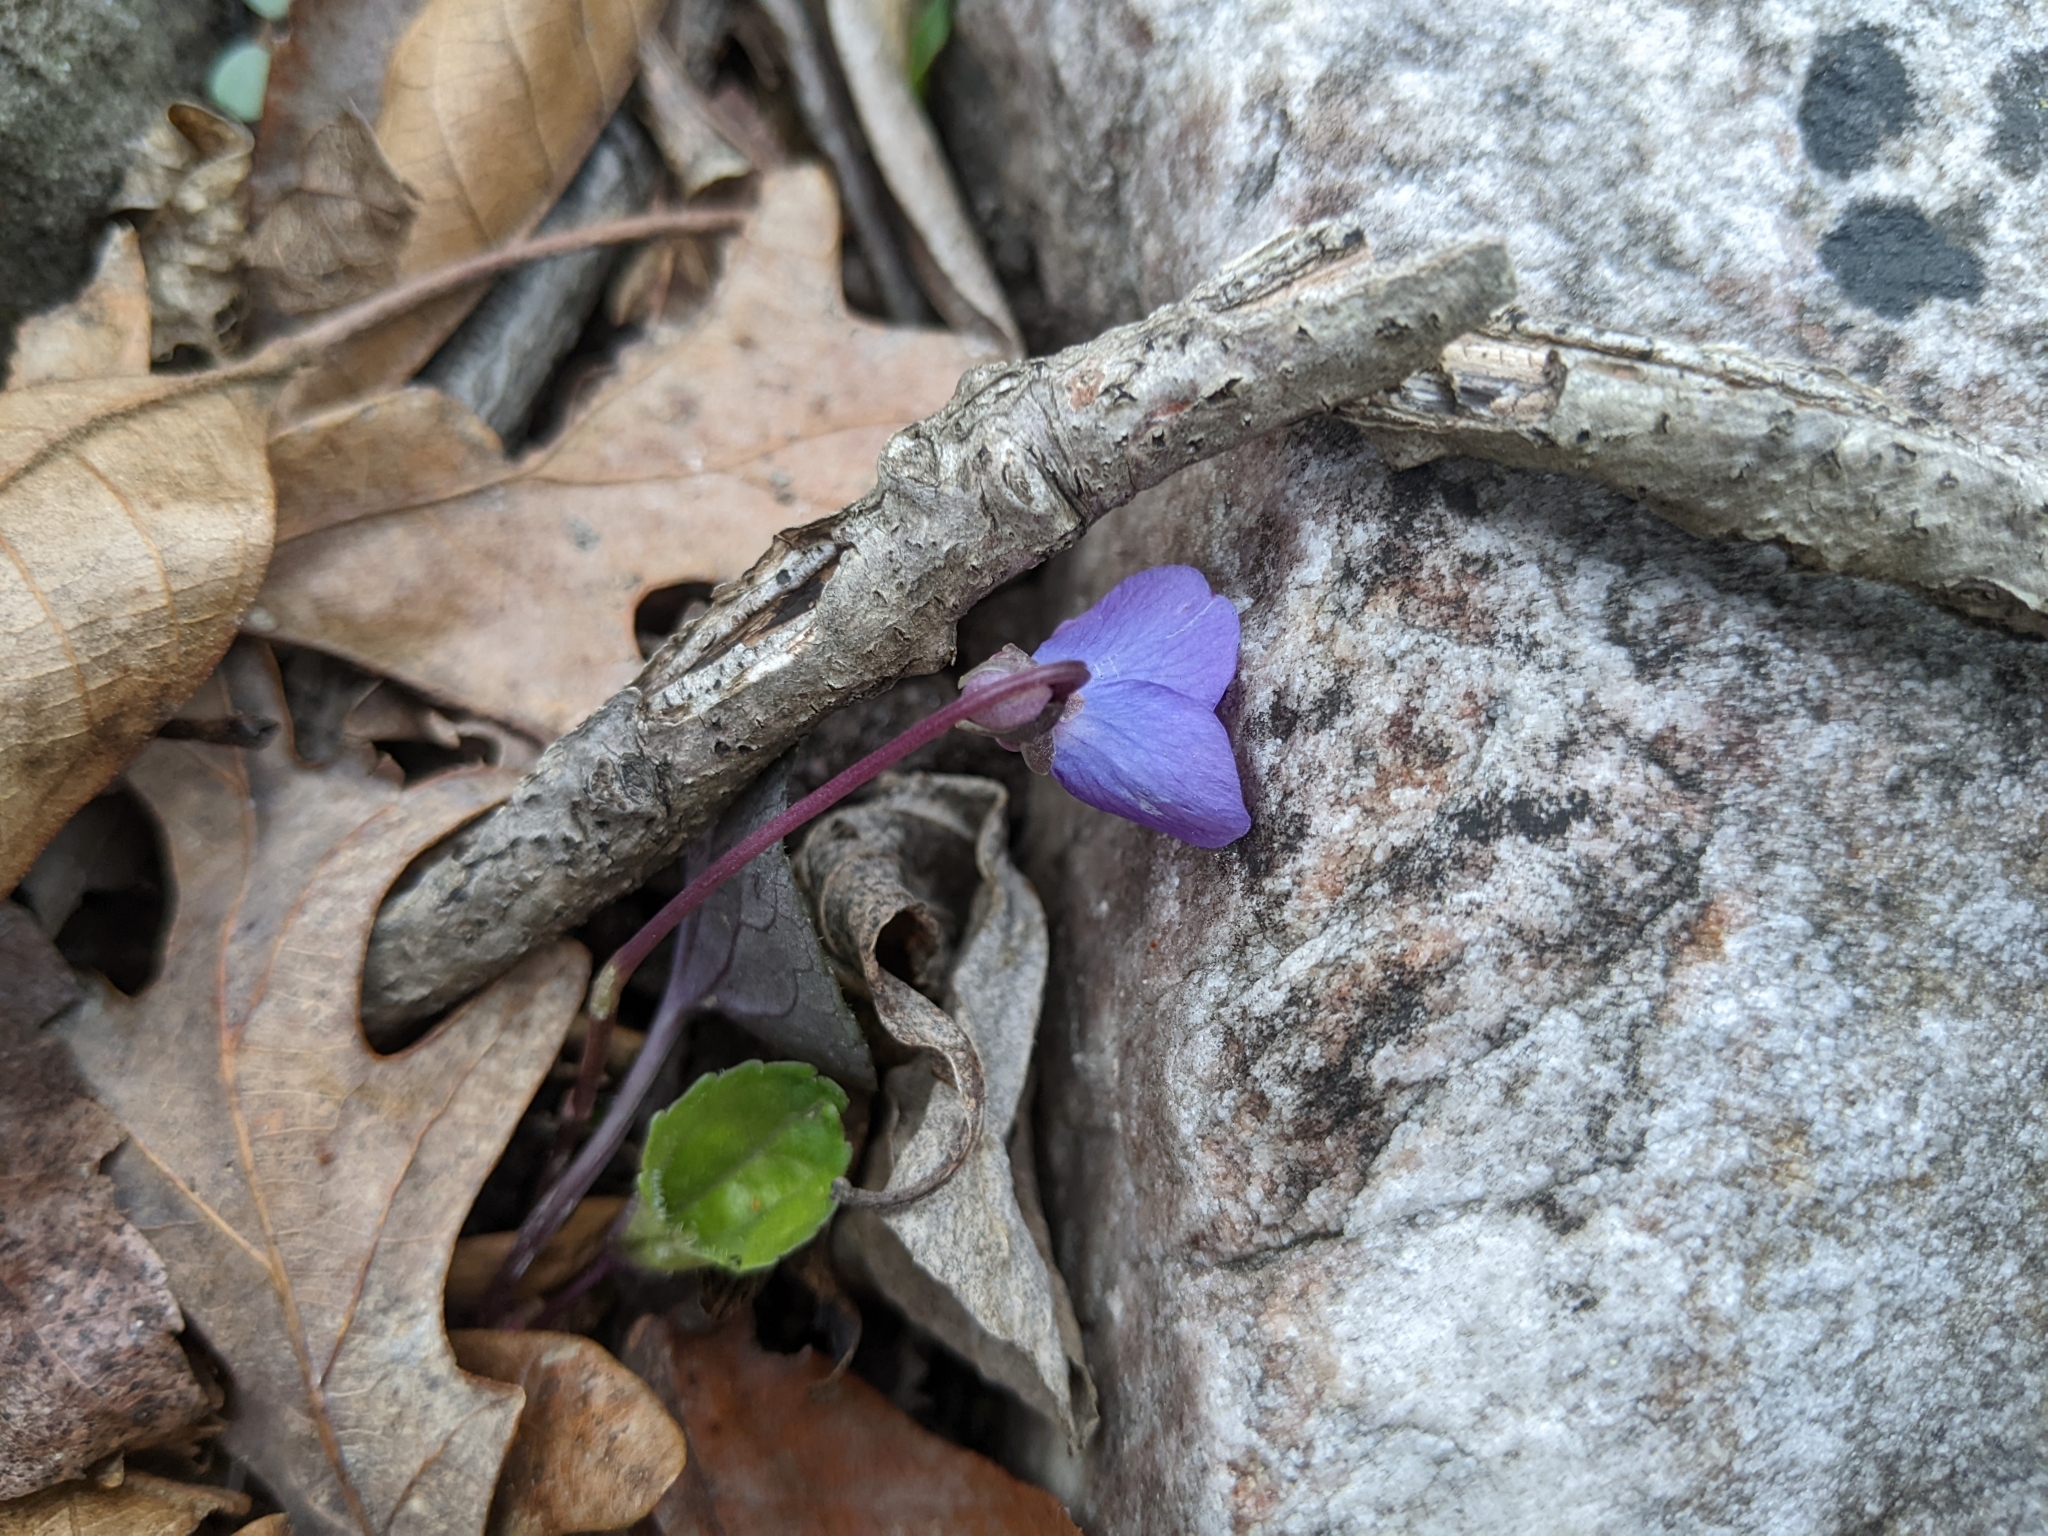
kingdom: Plantae
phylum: Tracheophyta
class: Magnoliopsida
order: Malpighiales
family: Violaceae
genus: Viola
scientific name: Viola hirsutula
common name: Southern wood violet
